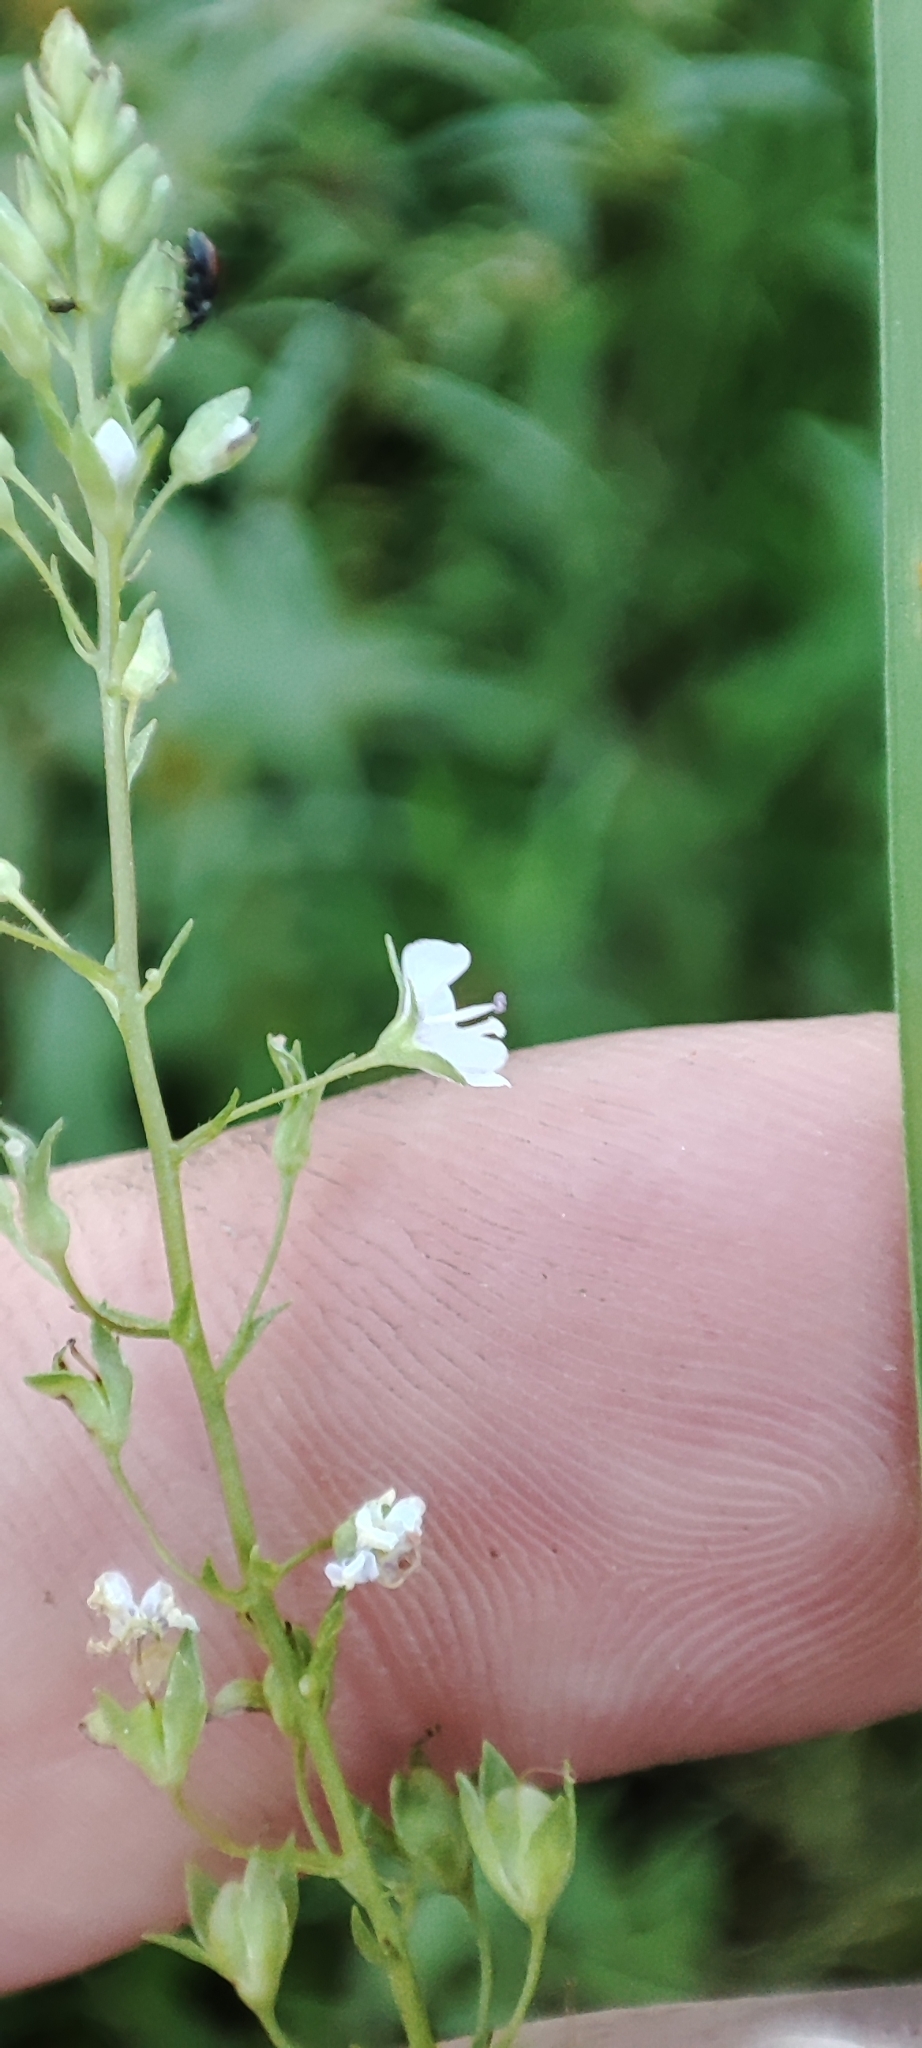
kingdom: Plantae
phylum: Tracheophyta
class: Magnoliopsida
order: Lamiales
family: Plantaginaceae
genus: Veronica
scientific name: Veronica anagallis-aquatica
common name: Water speedwell
